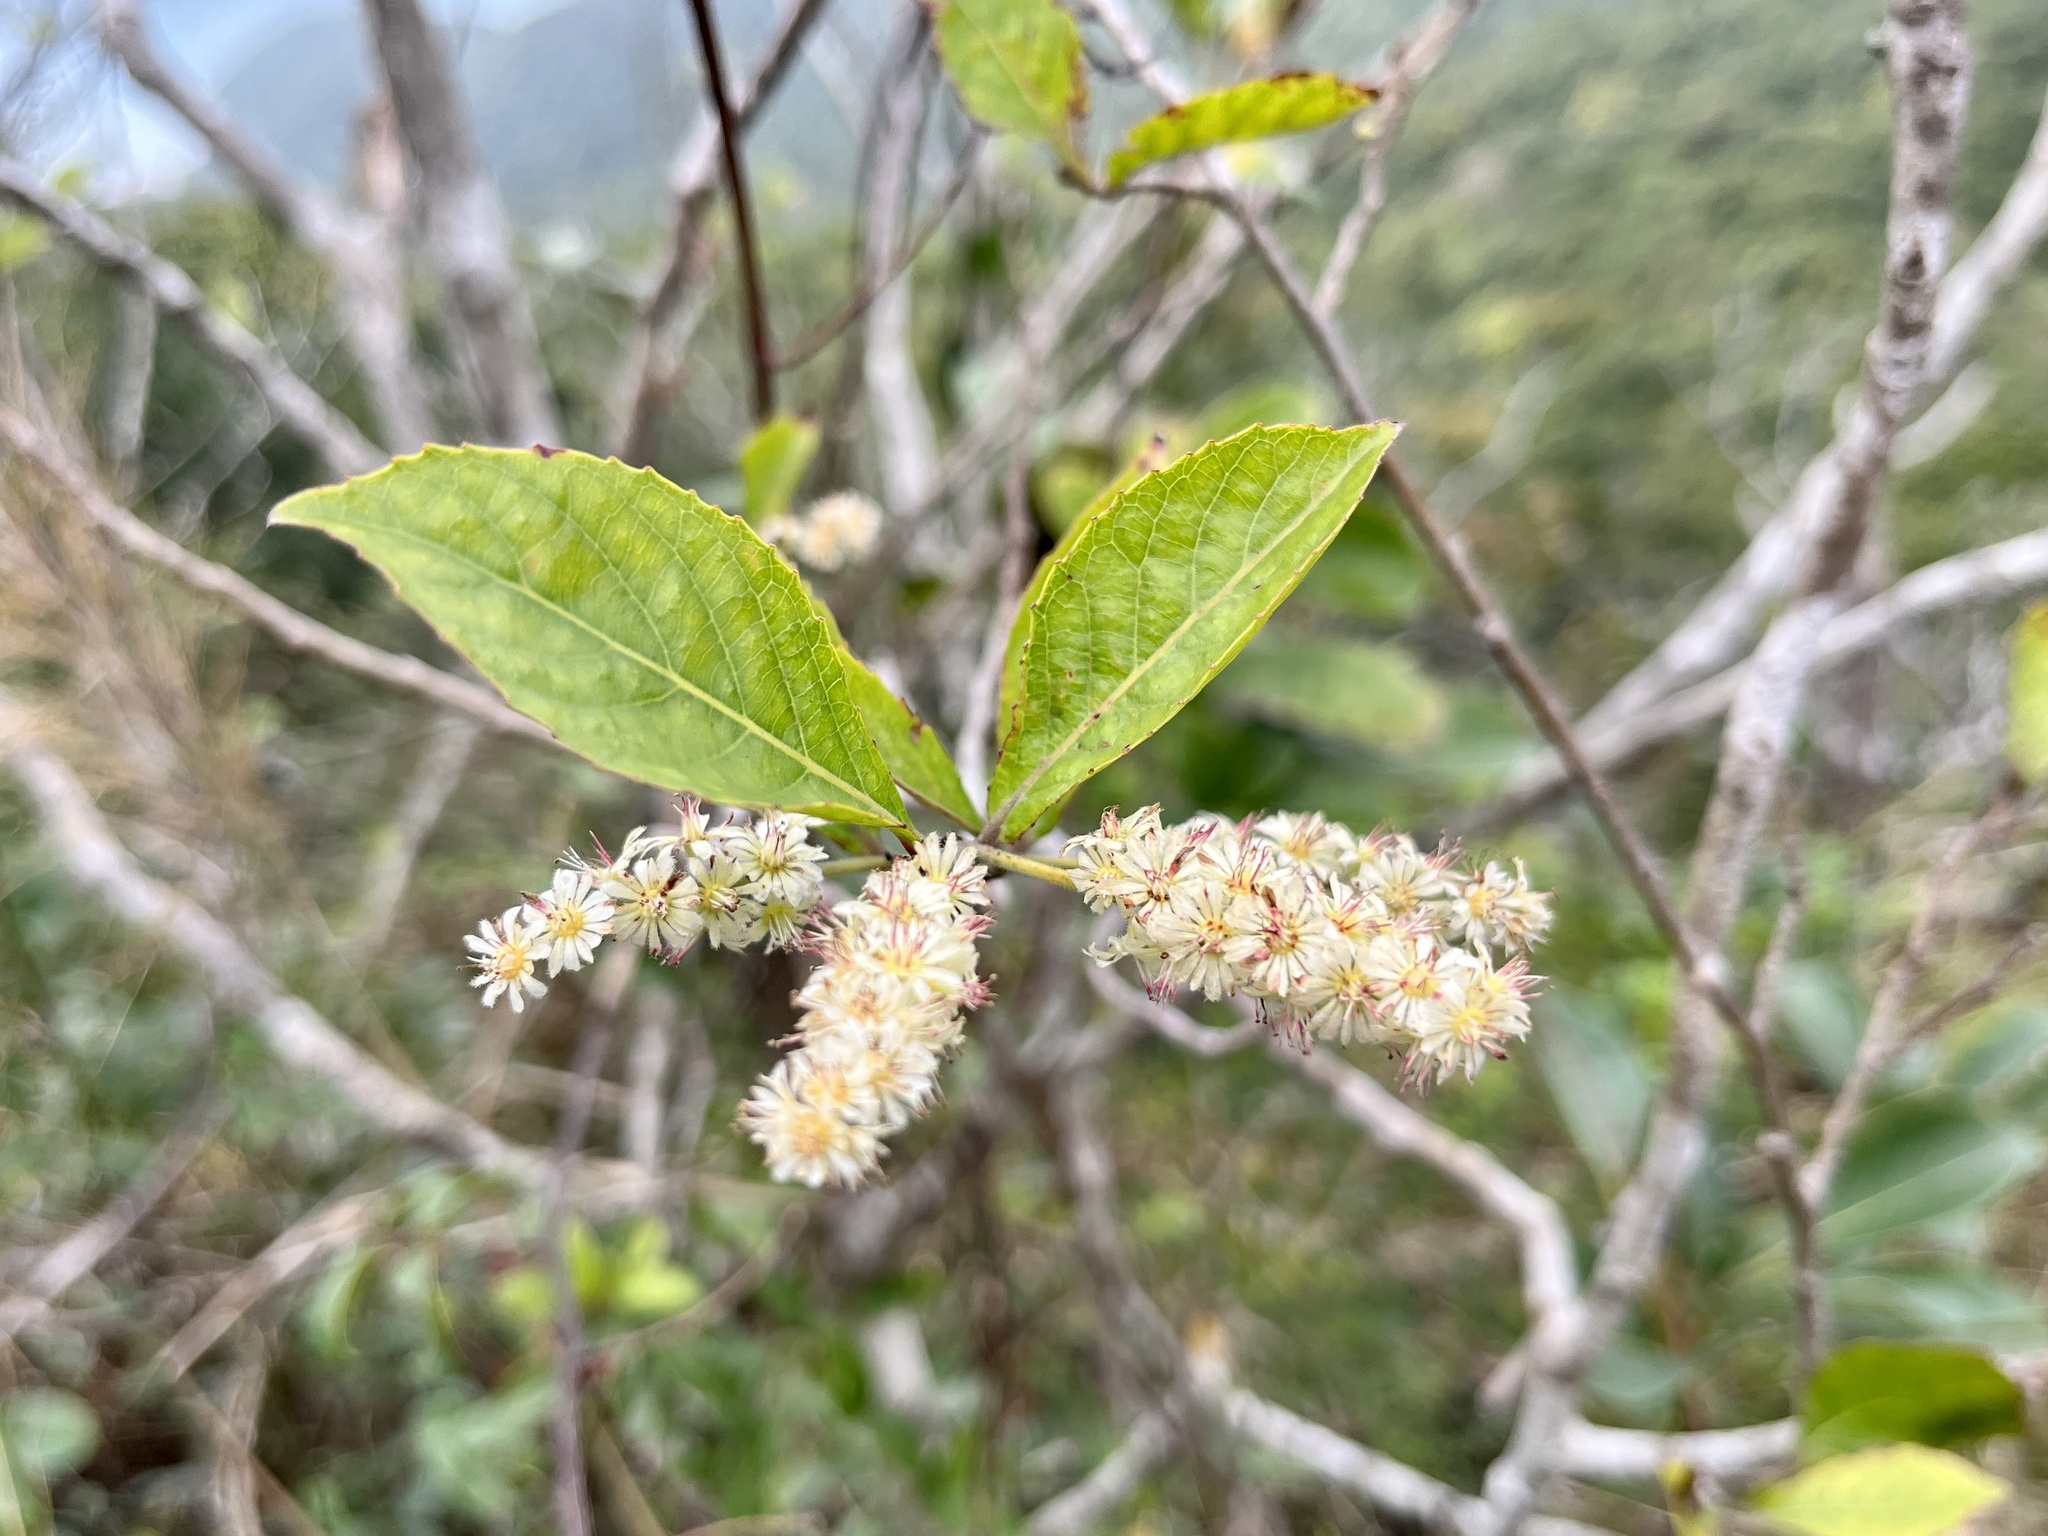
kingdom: Plantae
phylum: Tracheophyta
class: Magnoliopsida
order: Malpighiales
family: Salicaceae
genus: Homalium
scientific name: Homalium cochinchinensis
